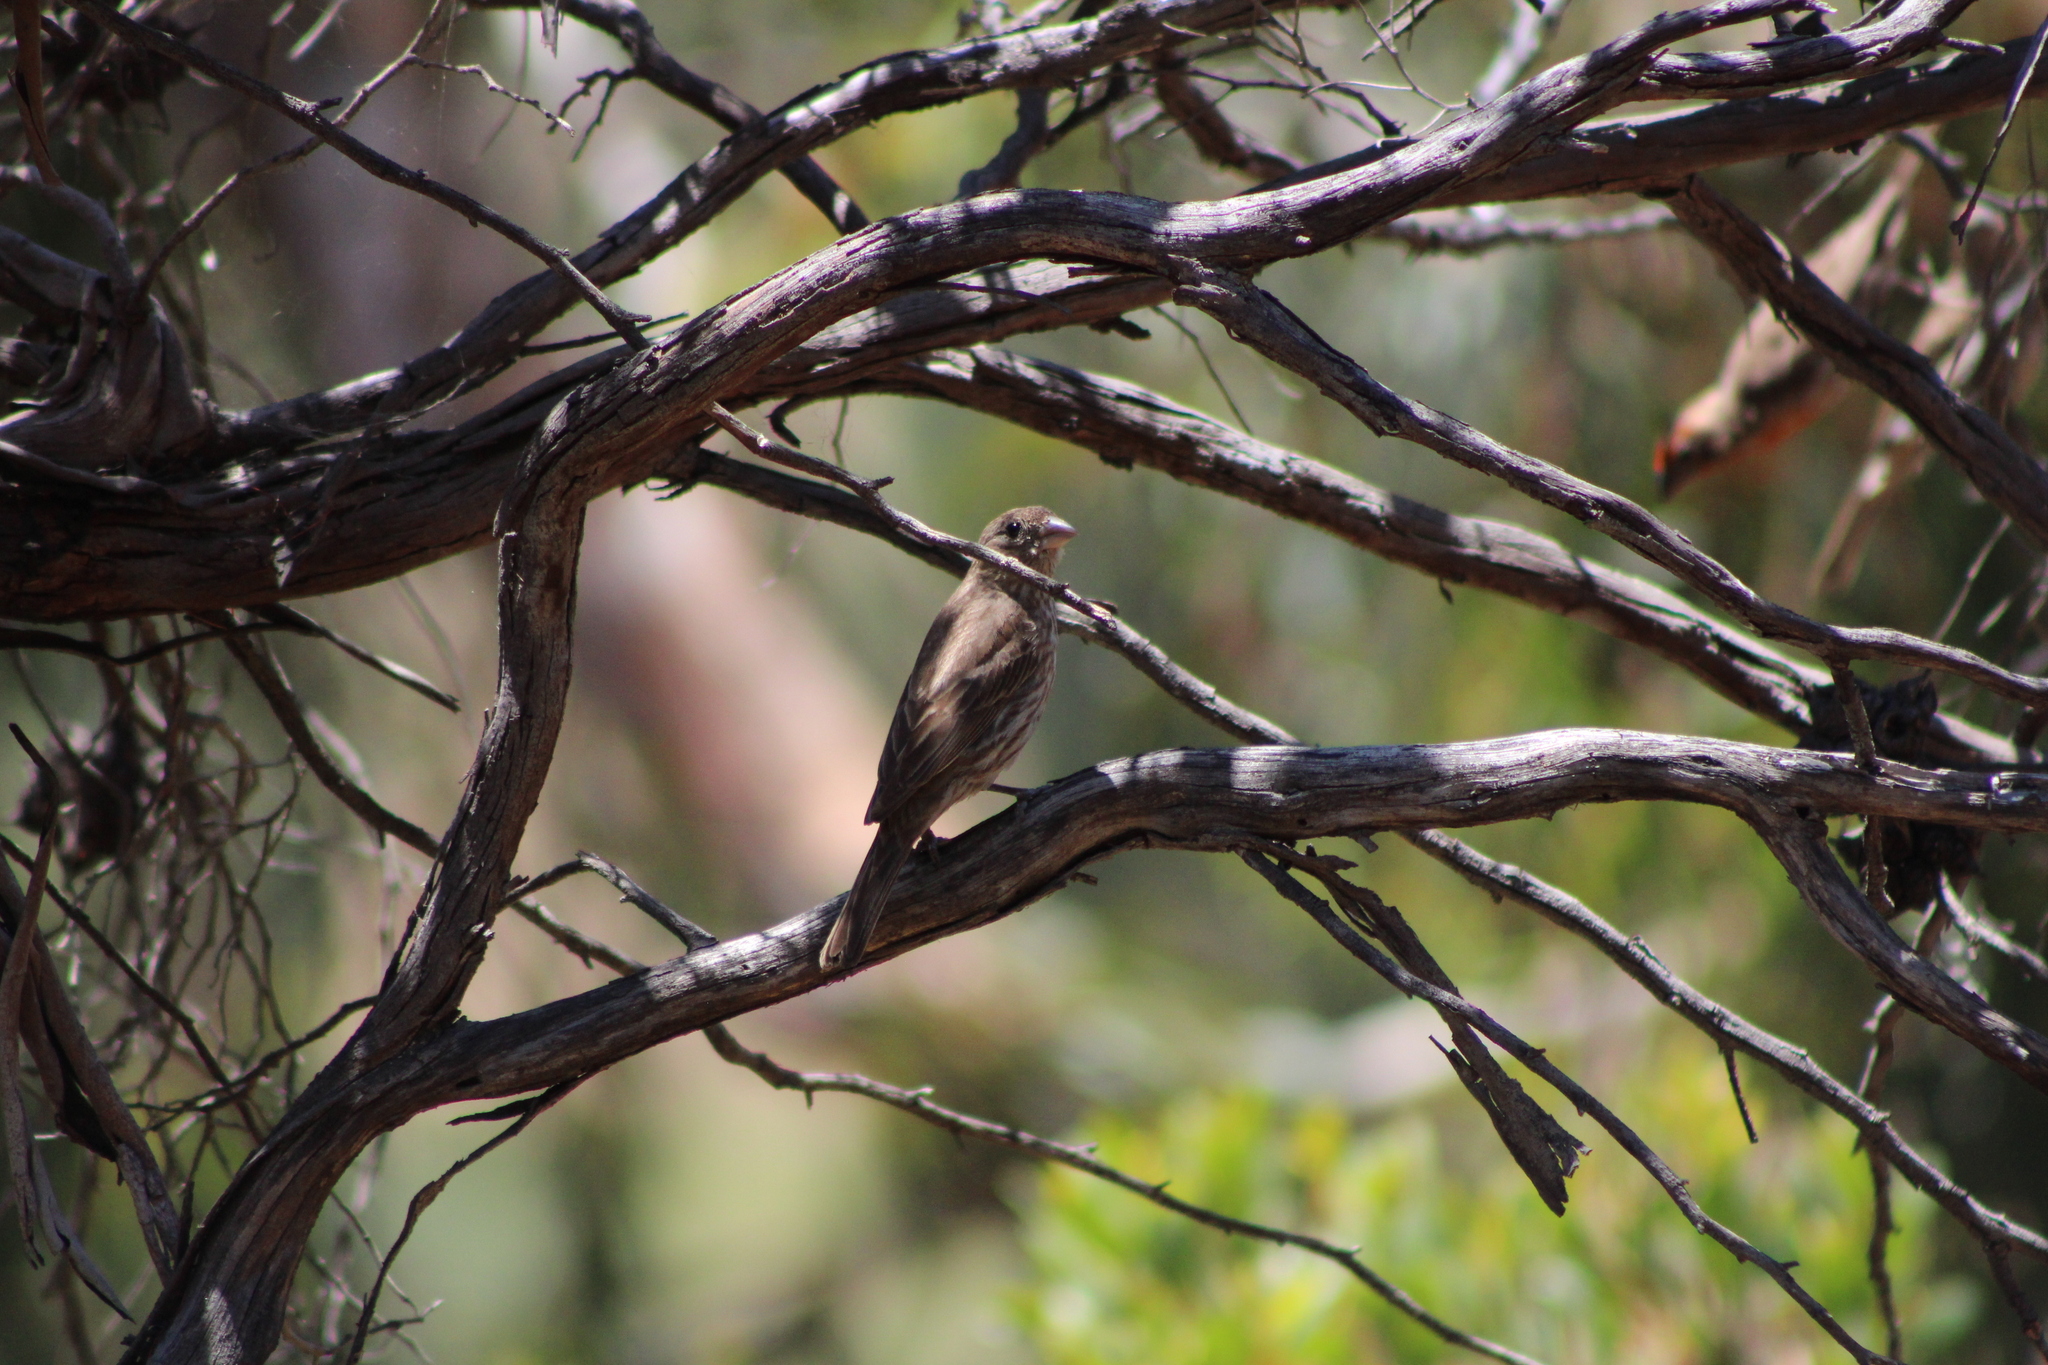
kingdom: Animalia
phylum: Chordata
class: Aves
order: Passeriformes
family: Fringillidae
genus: Haemorhous
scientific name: Haemorhous mexicanus
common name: House finch
